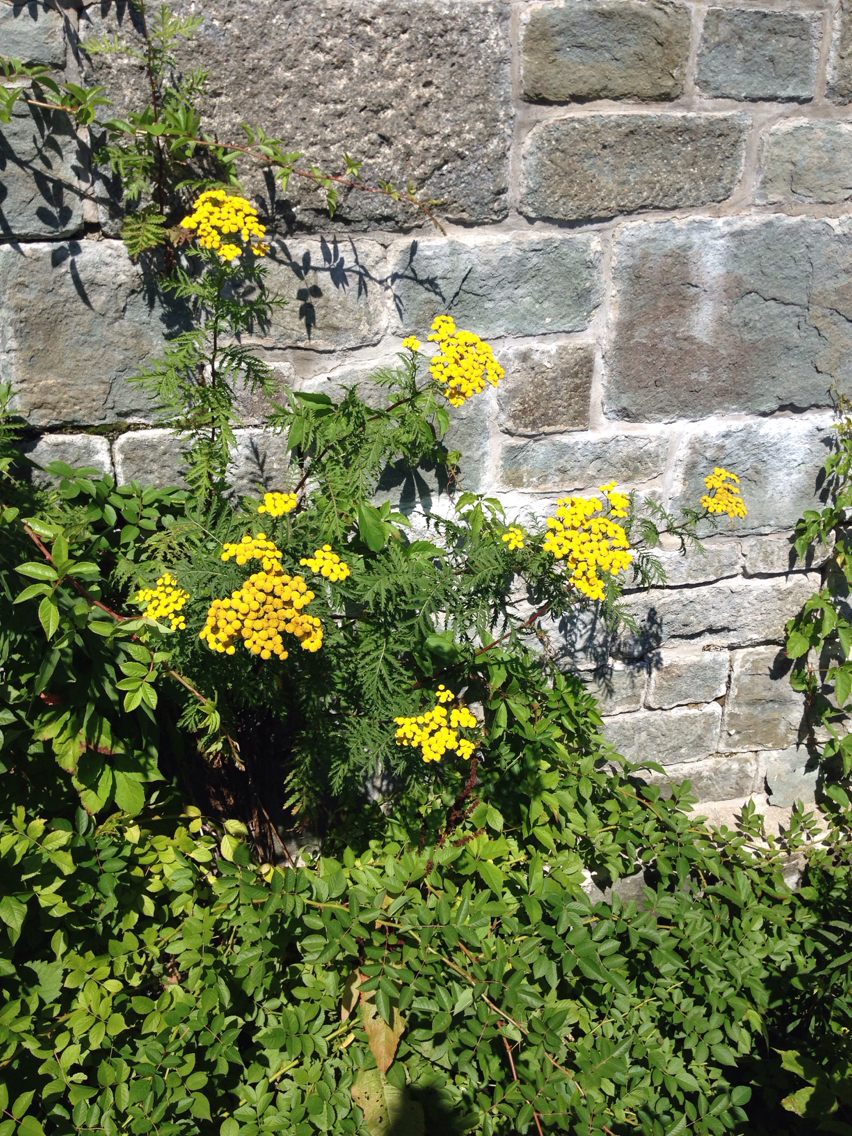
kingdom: Plantae
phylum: Tracheophyta
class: Magnoliopsida
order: Asterales
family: Asteraceae
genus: Tanacetum
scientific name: Tanacetum vulgare
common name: Common tansy
